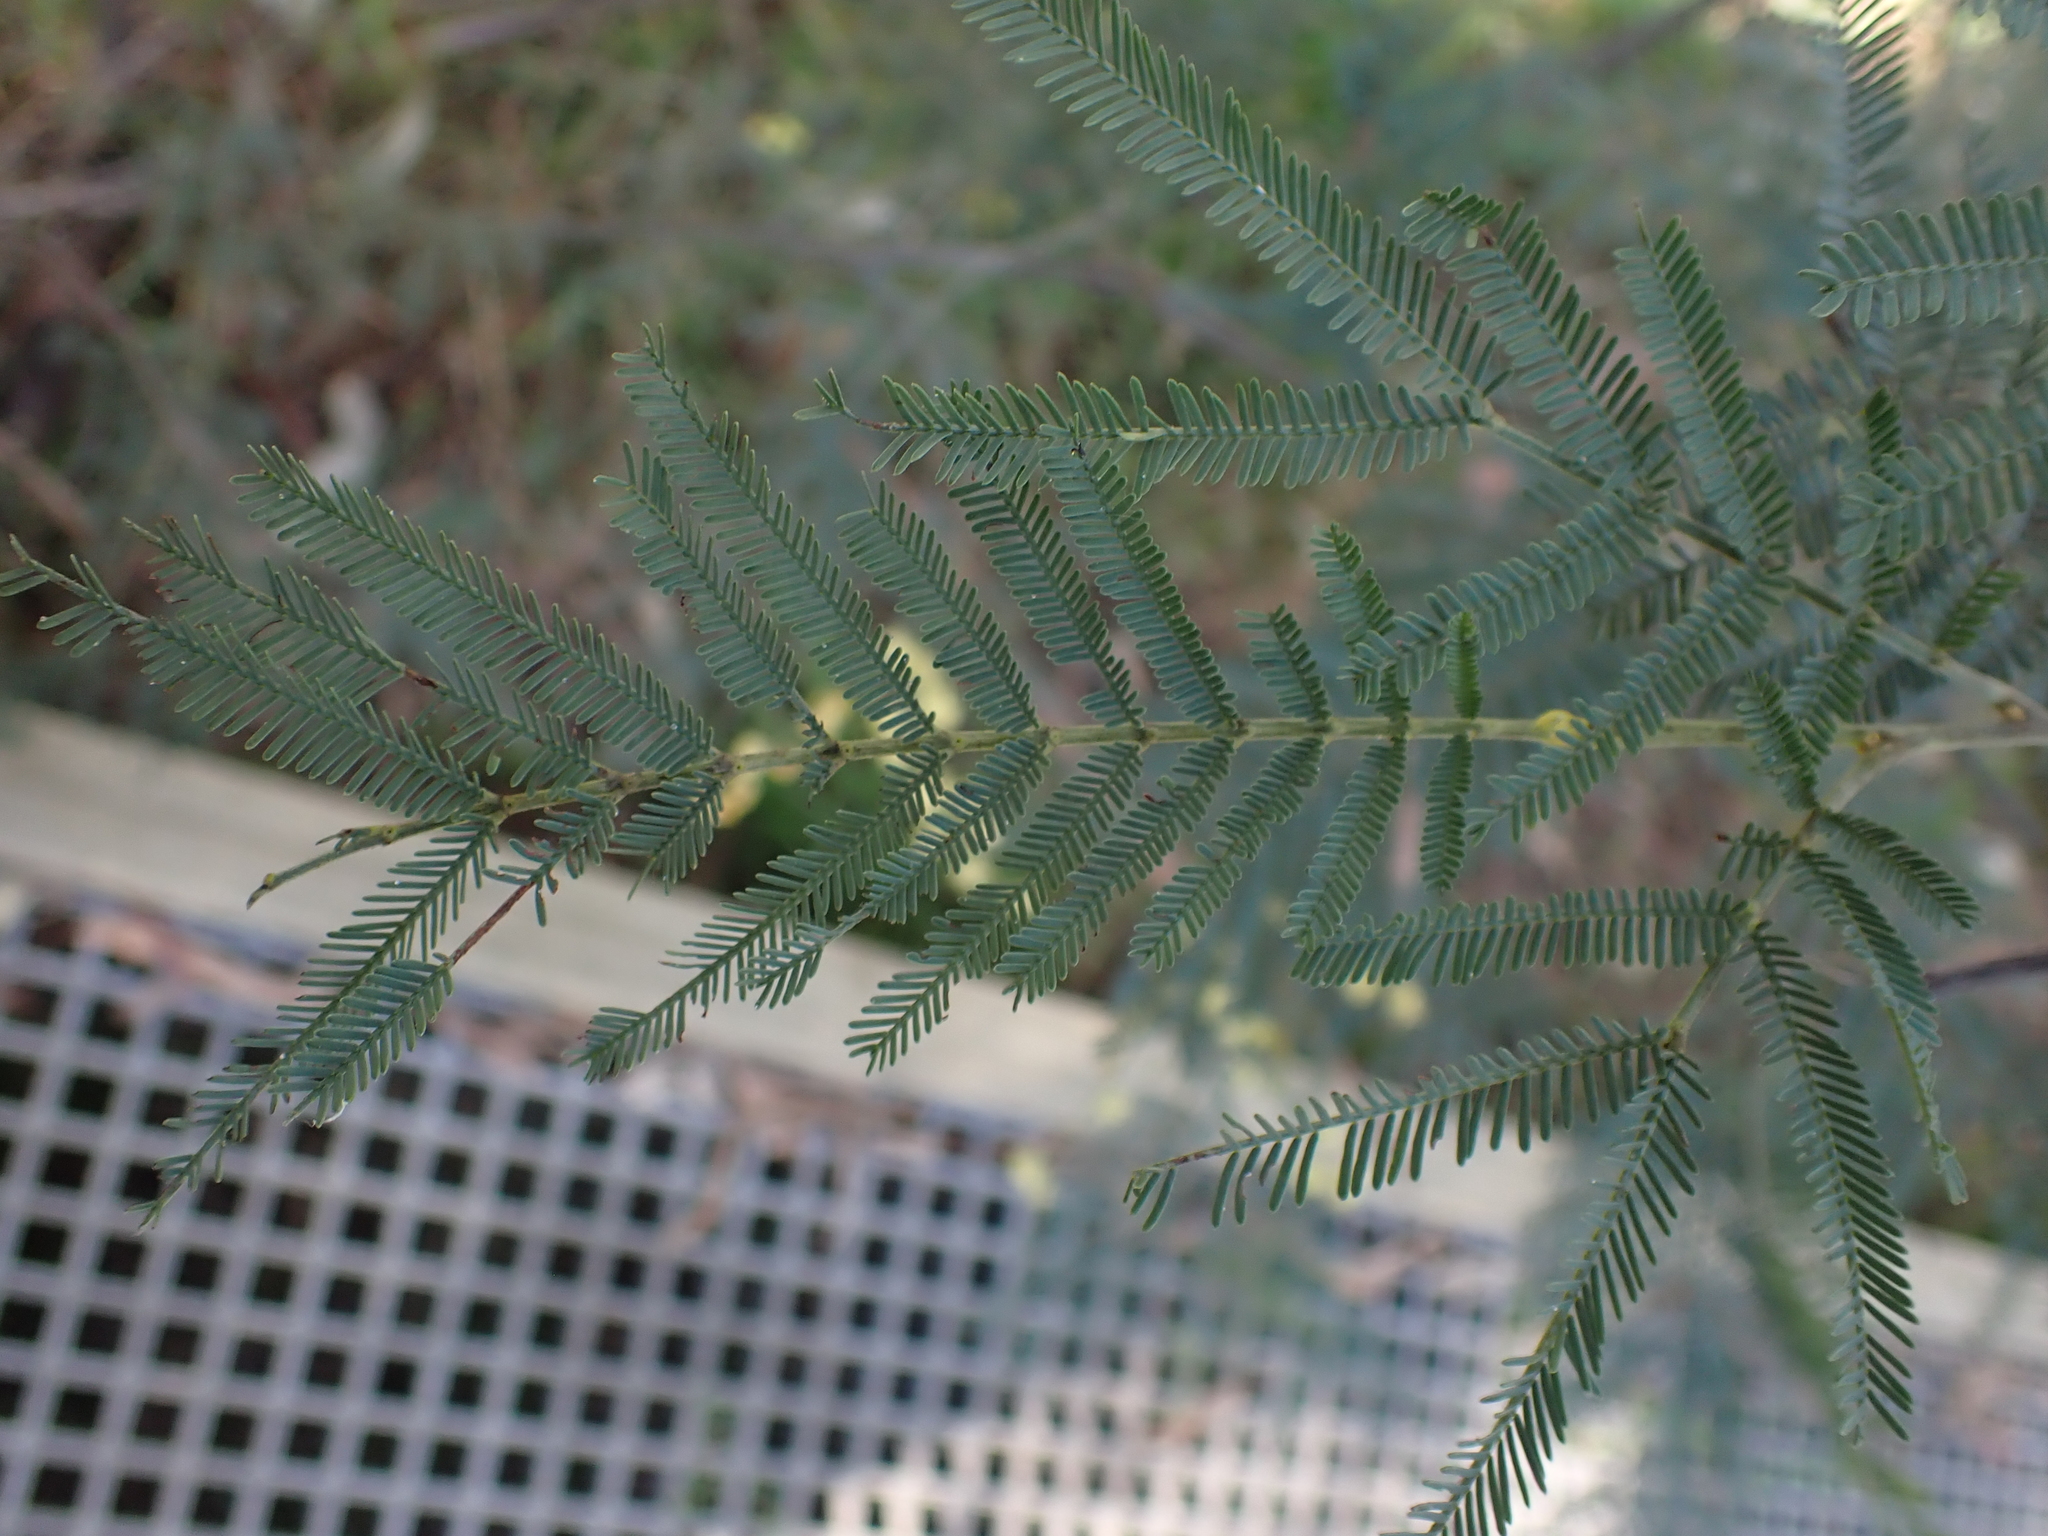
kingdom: Plantae
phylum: Tracheophyta
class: Magnoliopsida
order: Fabales
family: Fabaceae
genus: Acacia
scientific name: Acacia dealbata
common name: Silver wattle
